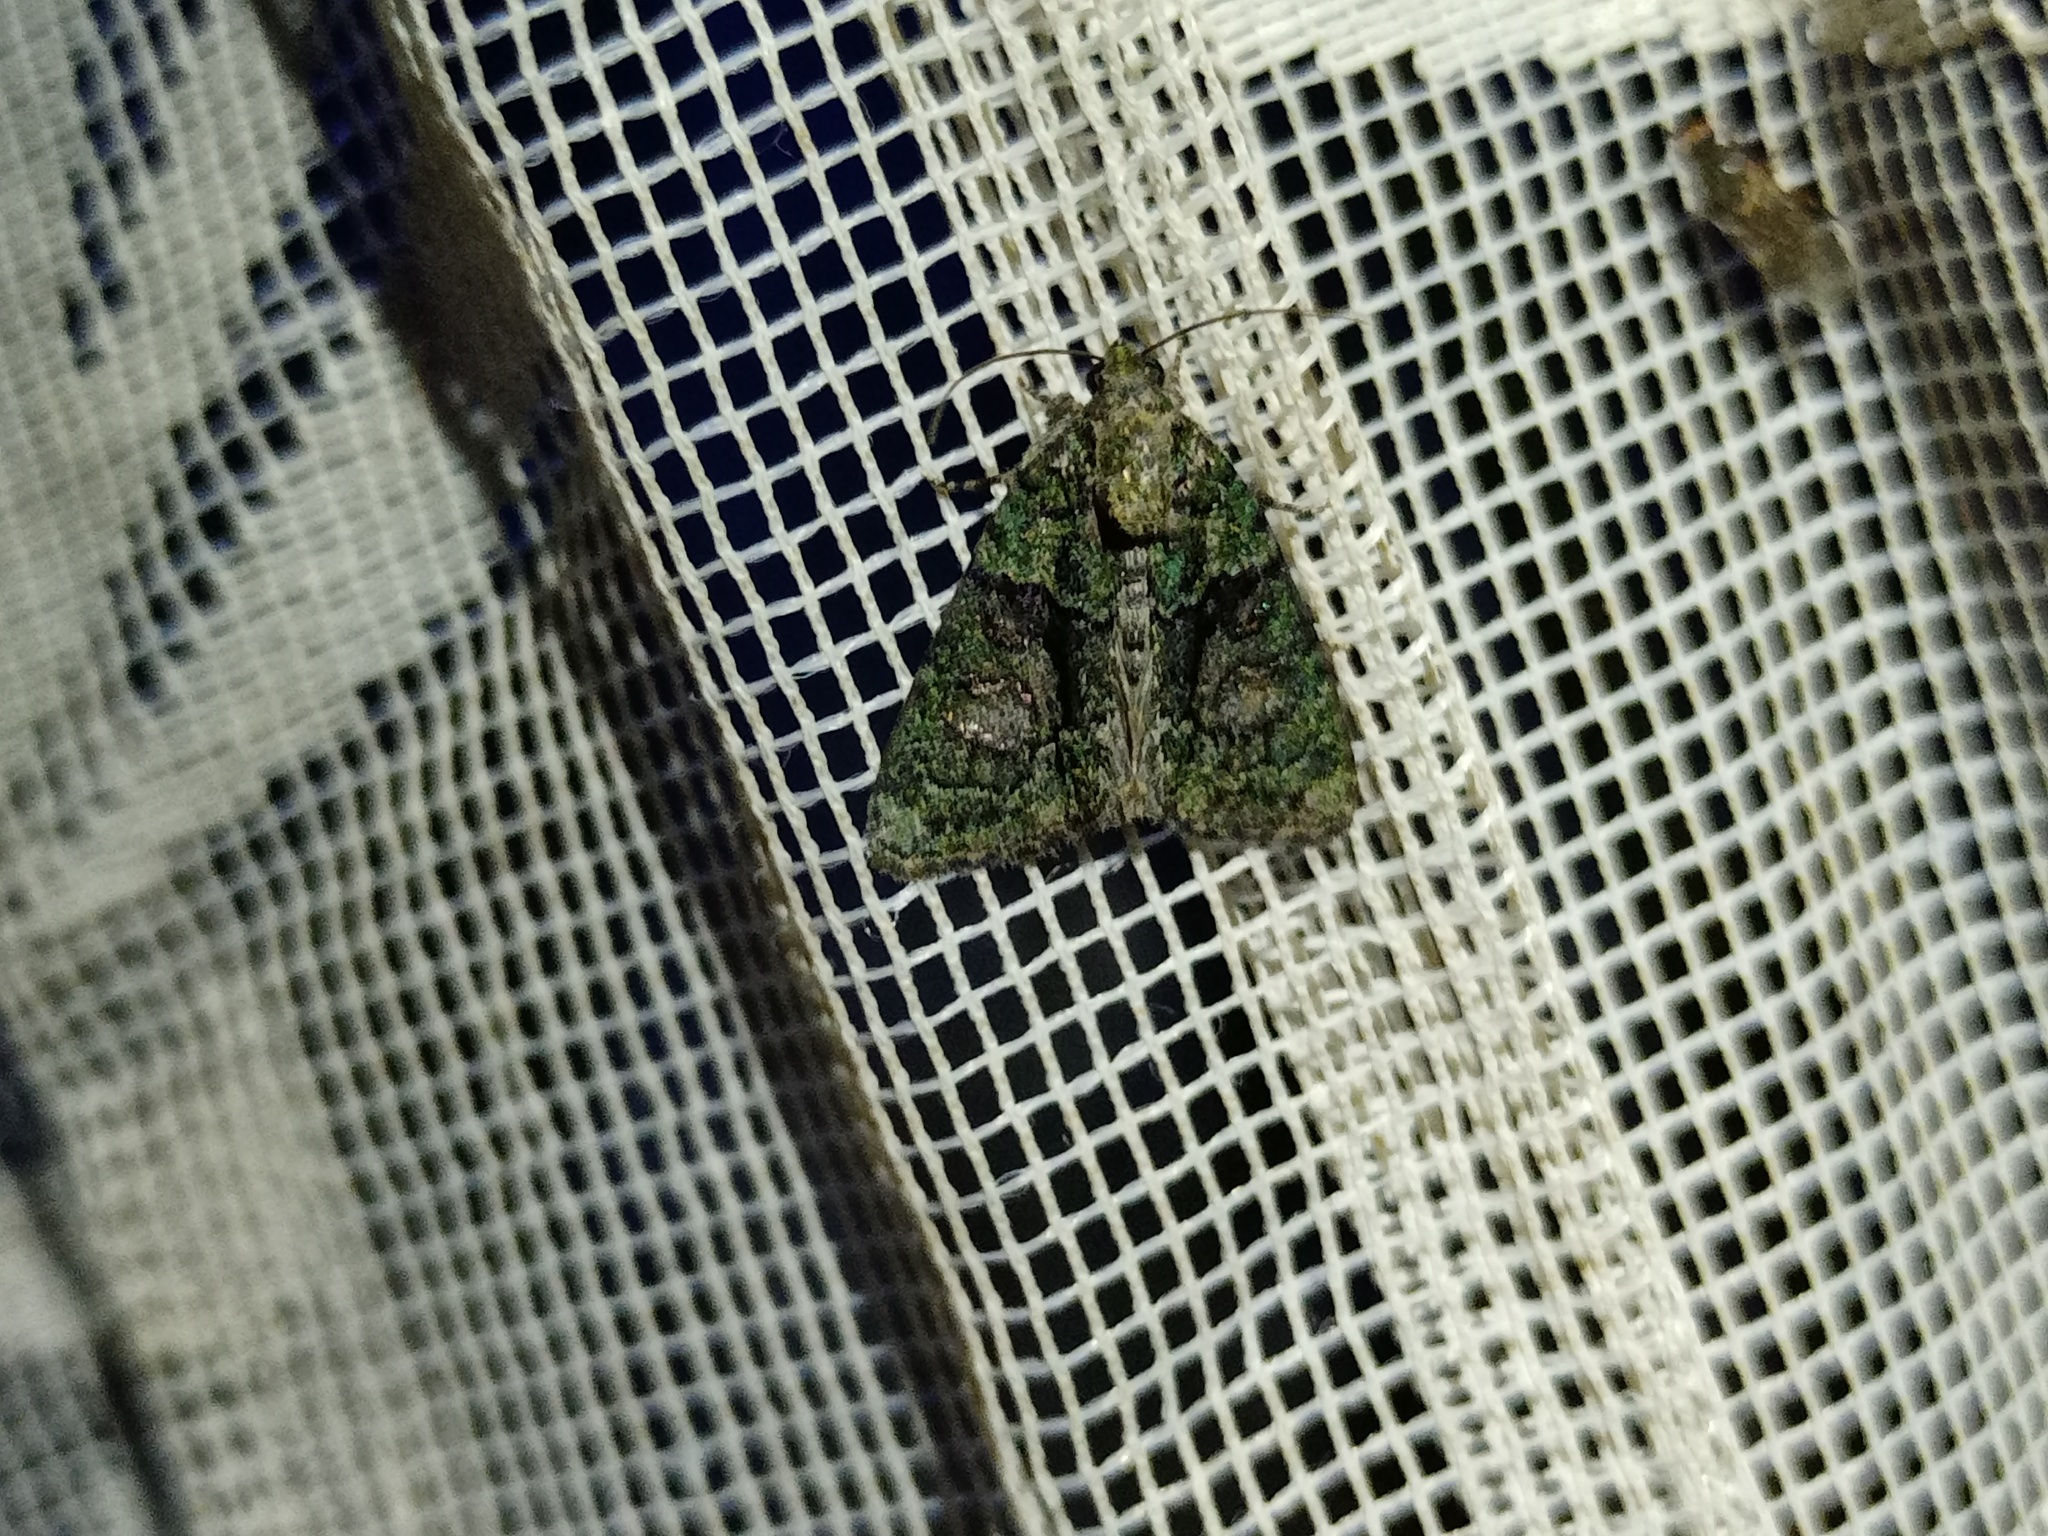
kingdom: Animalia
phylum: Arthropoda
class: Insecta
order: Lepidoptera
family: Noctuidae
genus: Cryphia
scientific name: Cryphia algae
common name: Tree-lichen beauty
